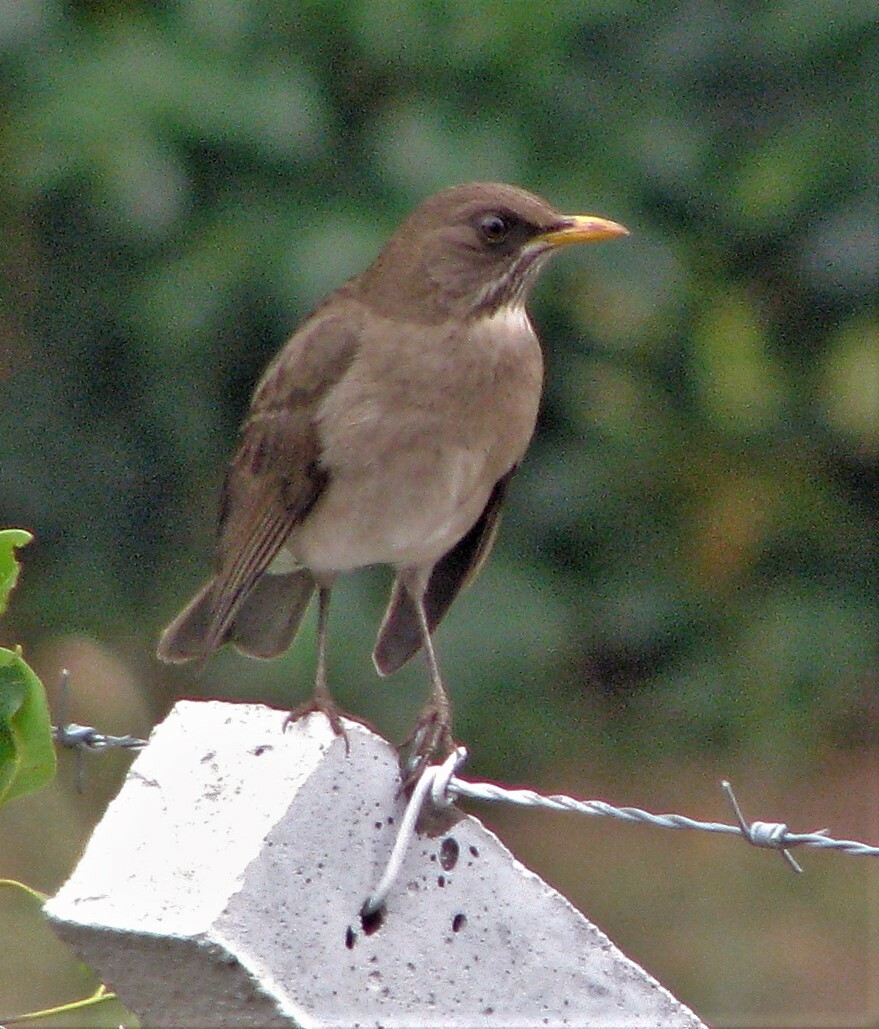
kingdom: Animalia
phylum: Chordata
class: Aves
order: Passeriformes
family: Turdidae
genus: Turdus
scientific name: Turdus amaurochalinus
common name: Creamy-bellied thrush
